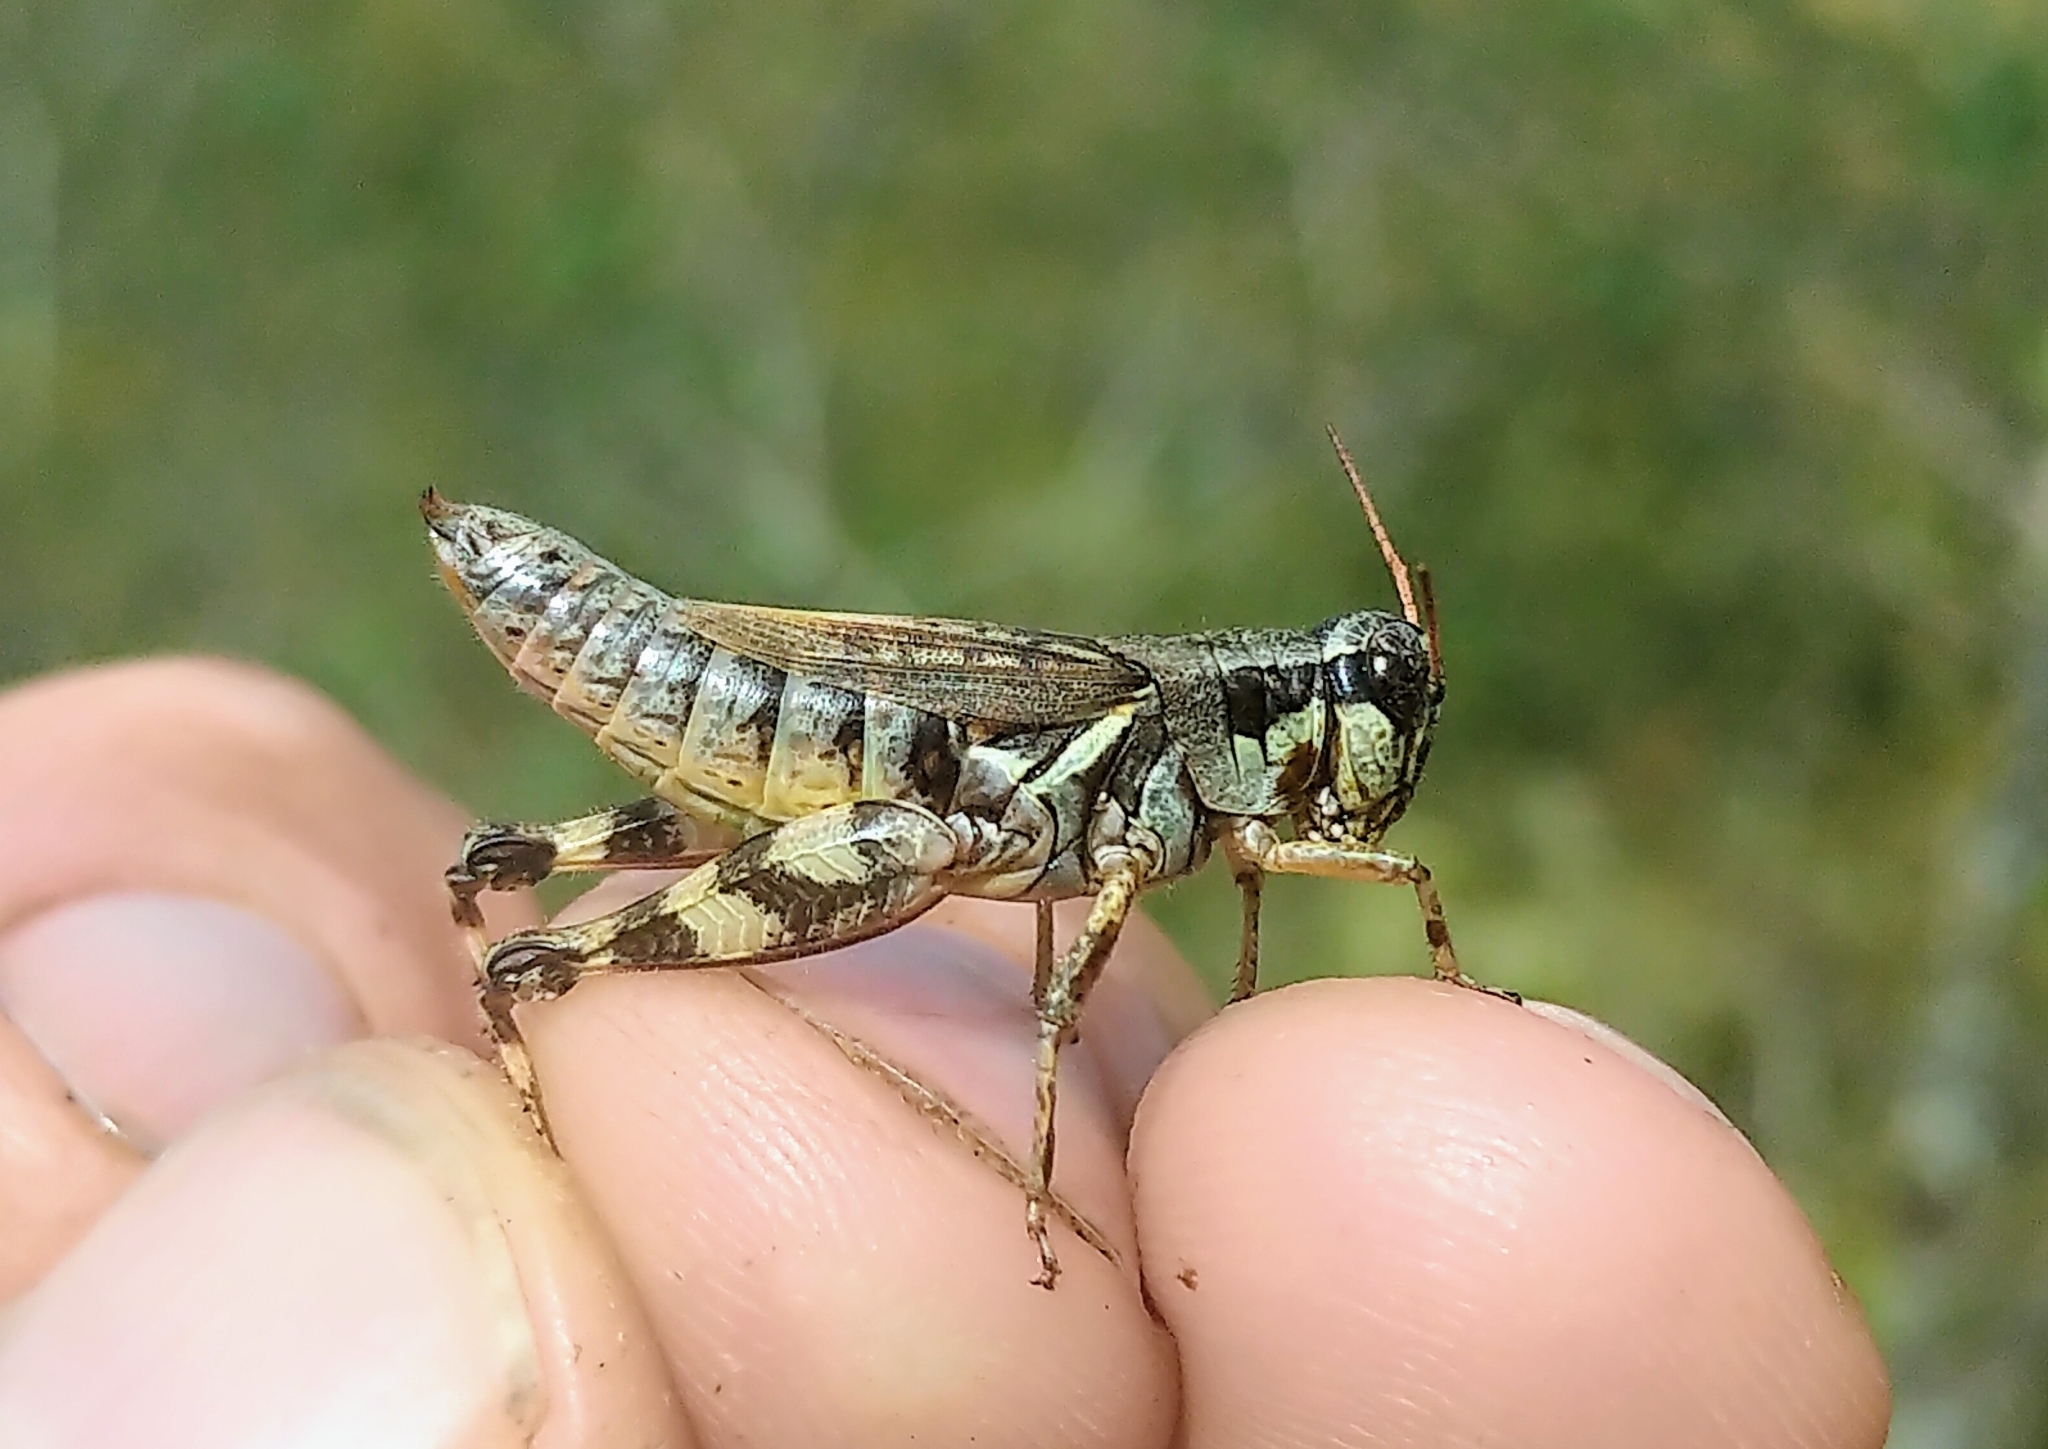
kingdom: Animalia
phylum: Arthropoda
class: Insecta
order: Orthoptera
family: Acrididae
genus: Melanoplus
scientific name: Melanoplus fasciatus
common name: Huckleberry locust
